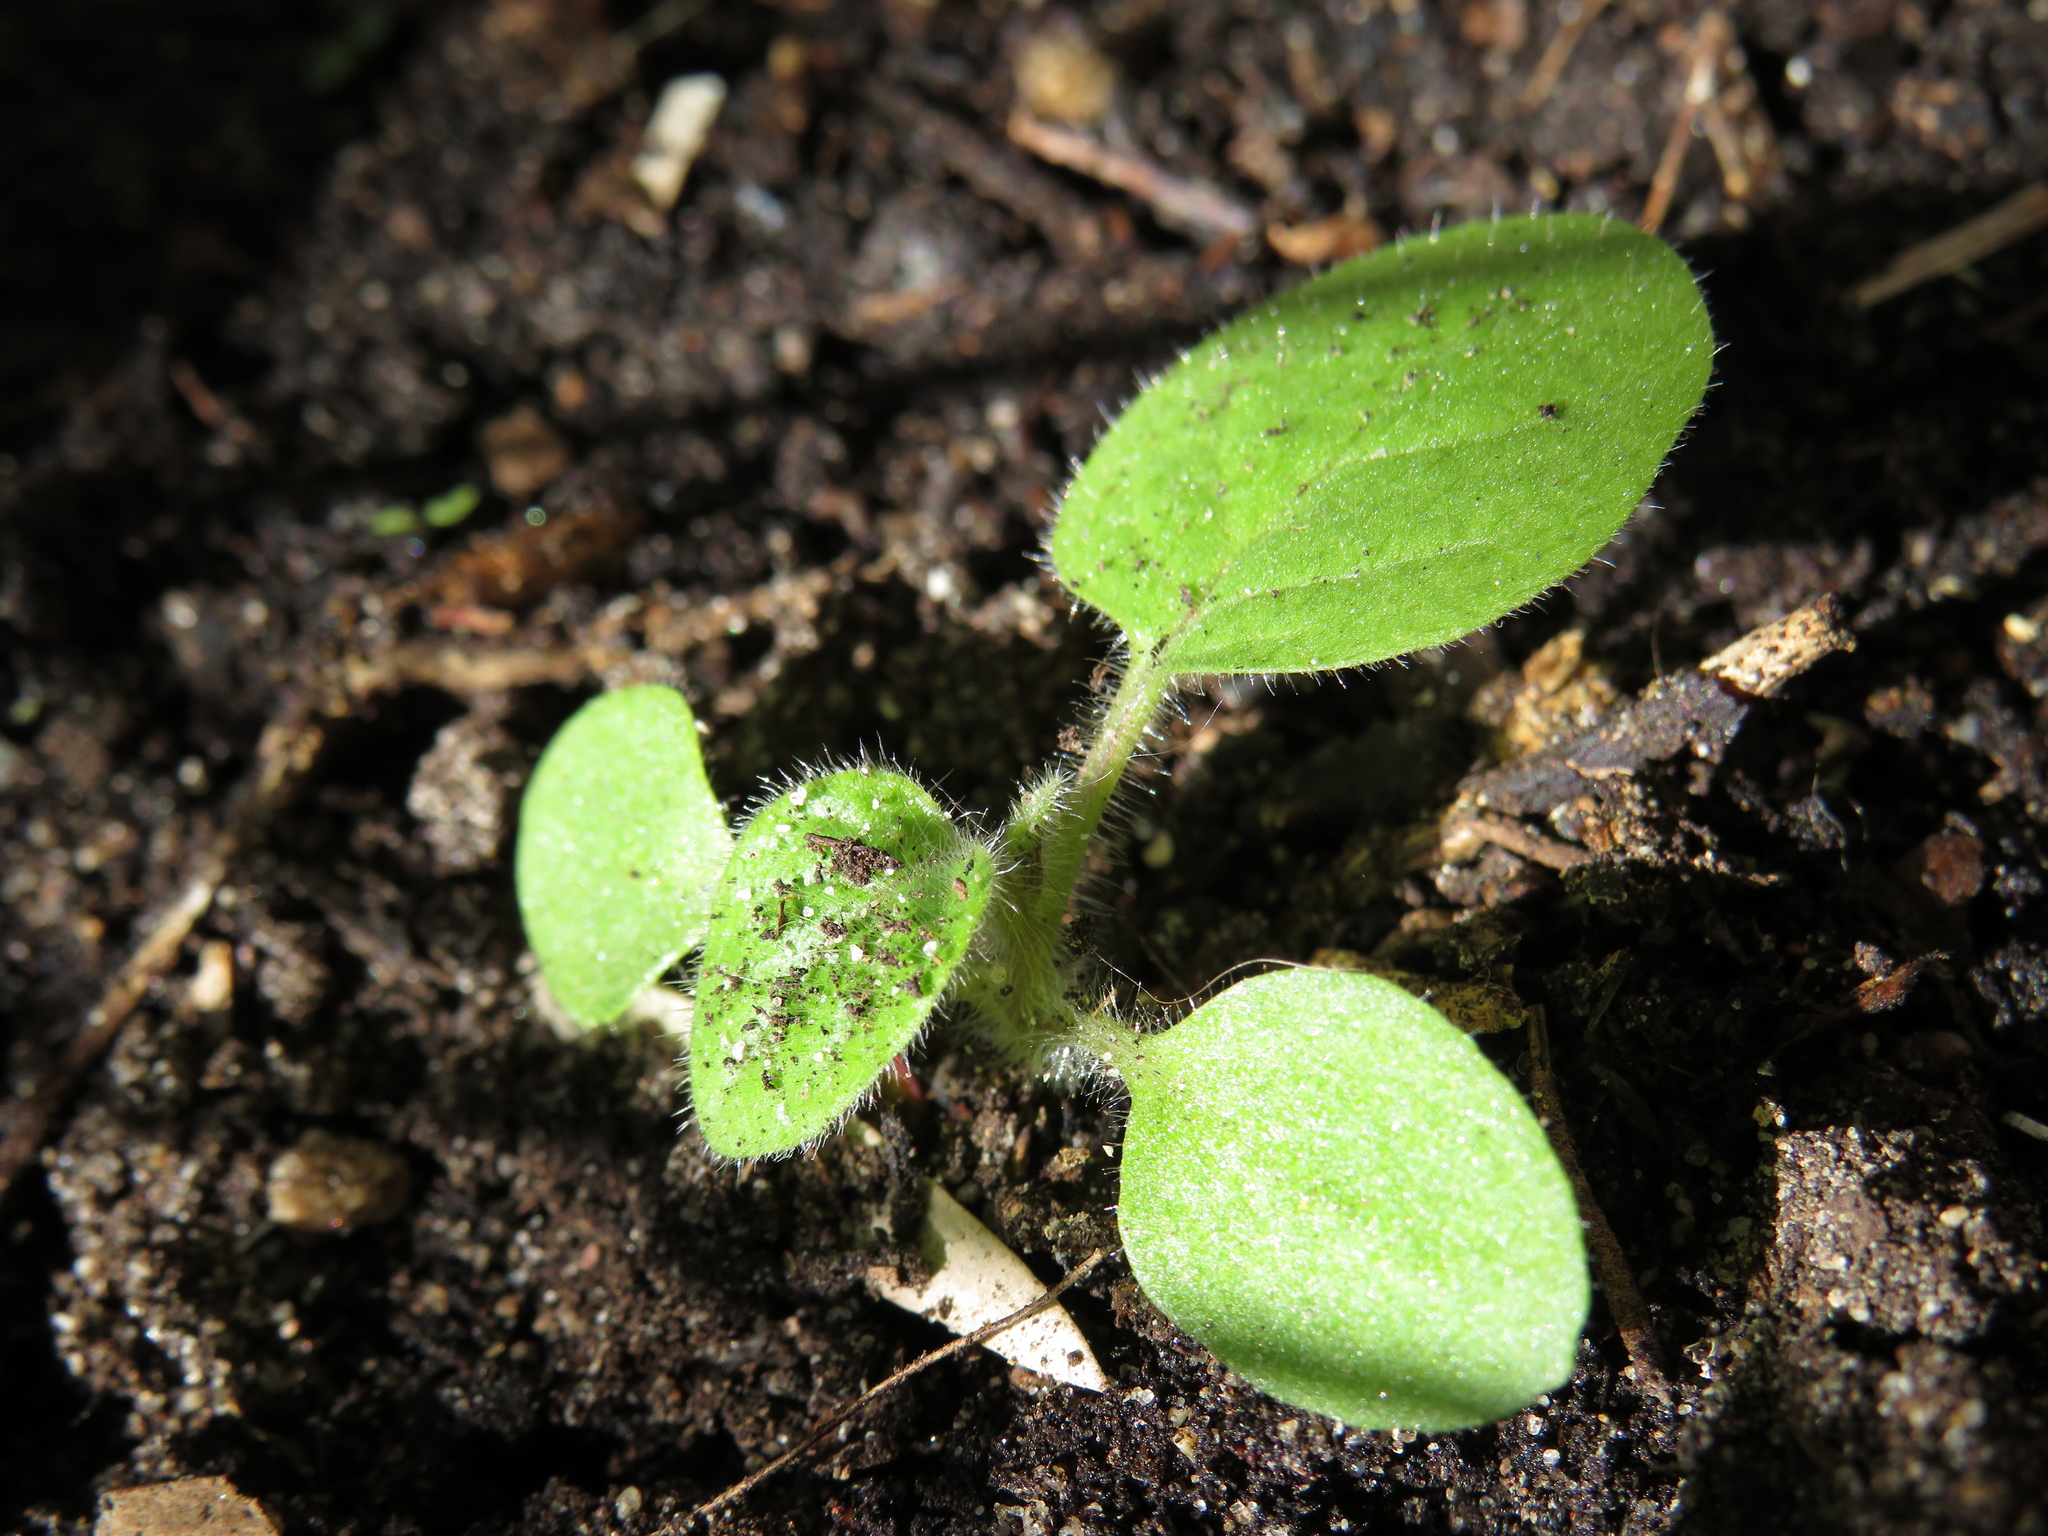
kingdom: Plantae
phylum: Tracheophyta
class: Magnoliopsida
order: Solanales
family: Solanaceae
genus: Physalis
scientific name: Physalis peruviana
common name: Cape-gooseberry
